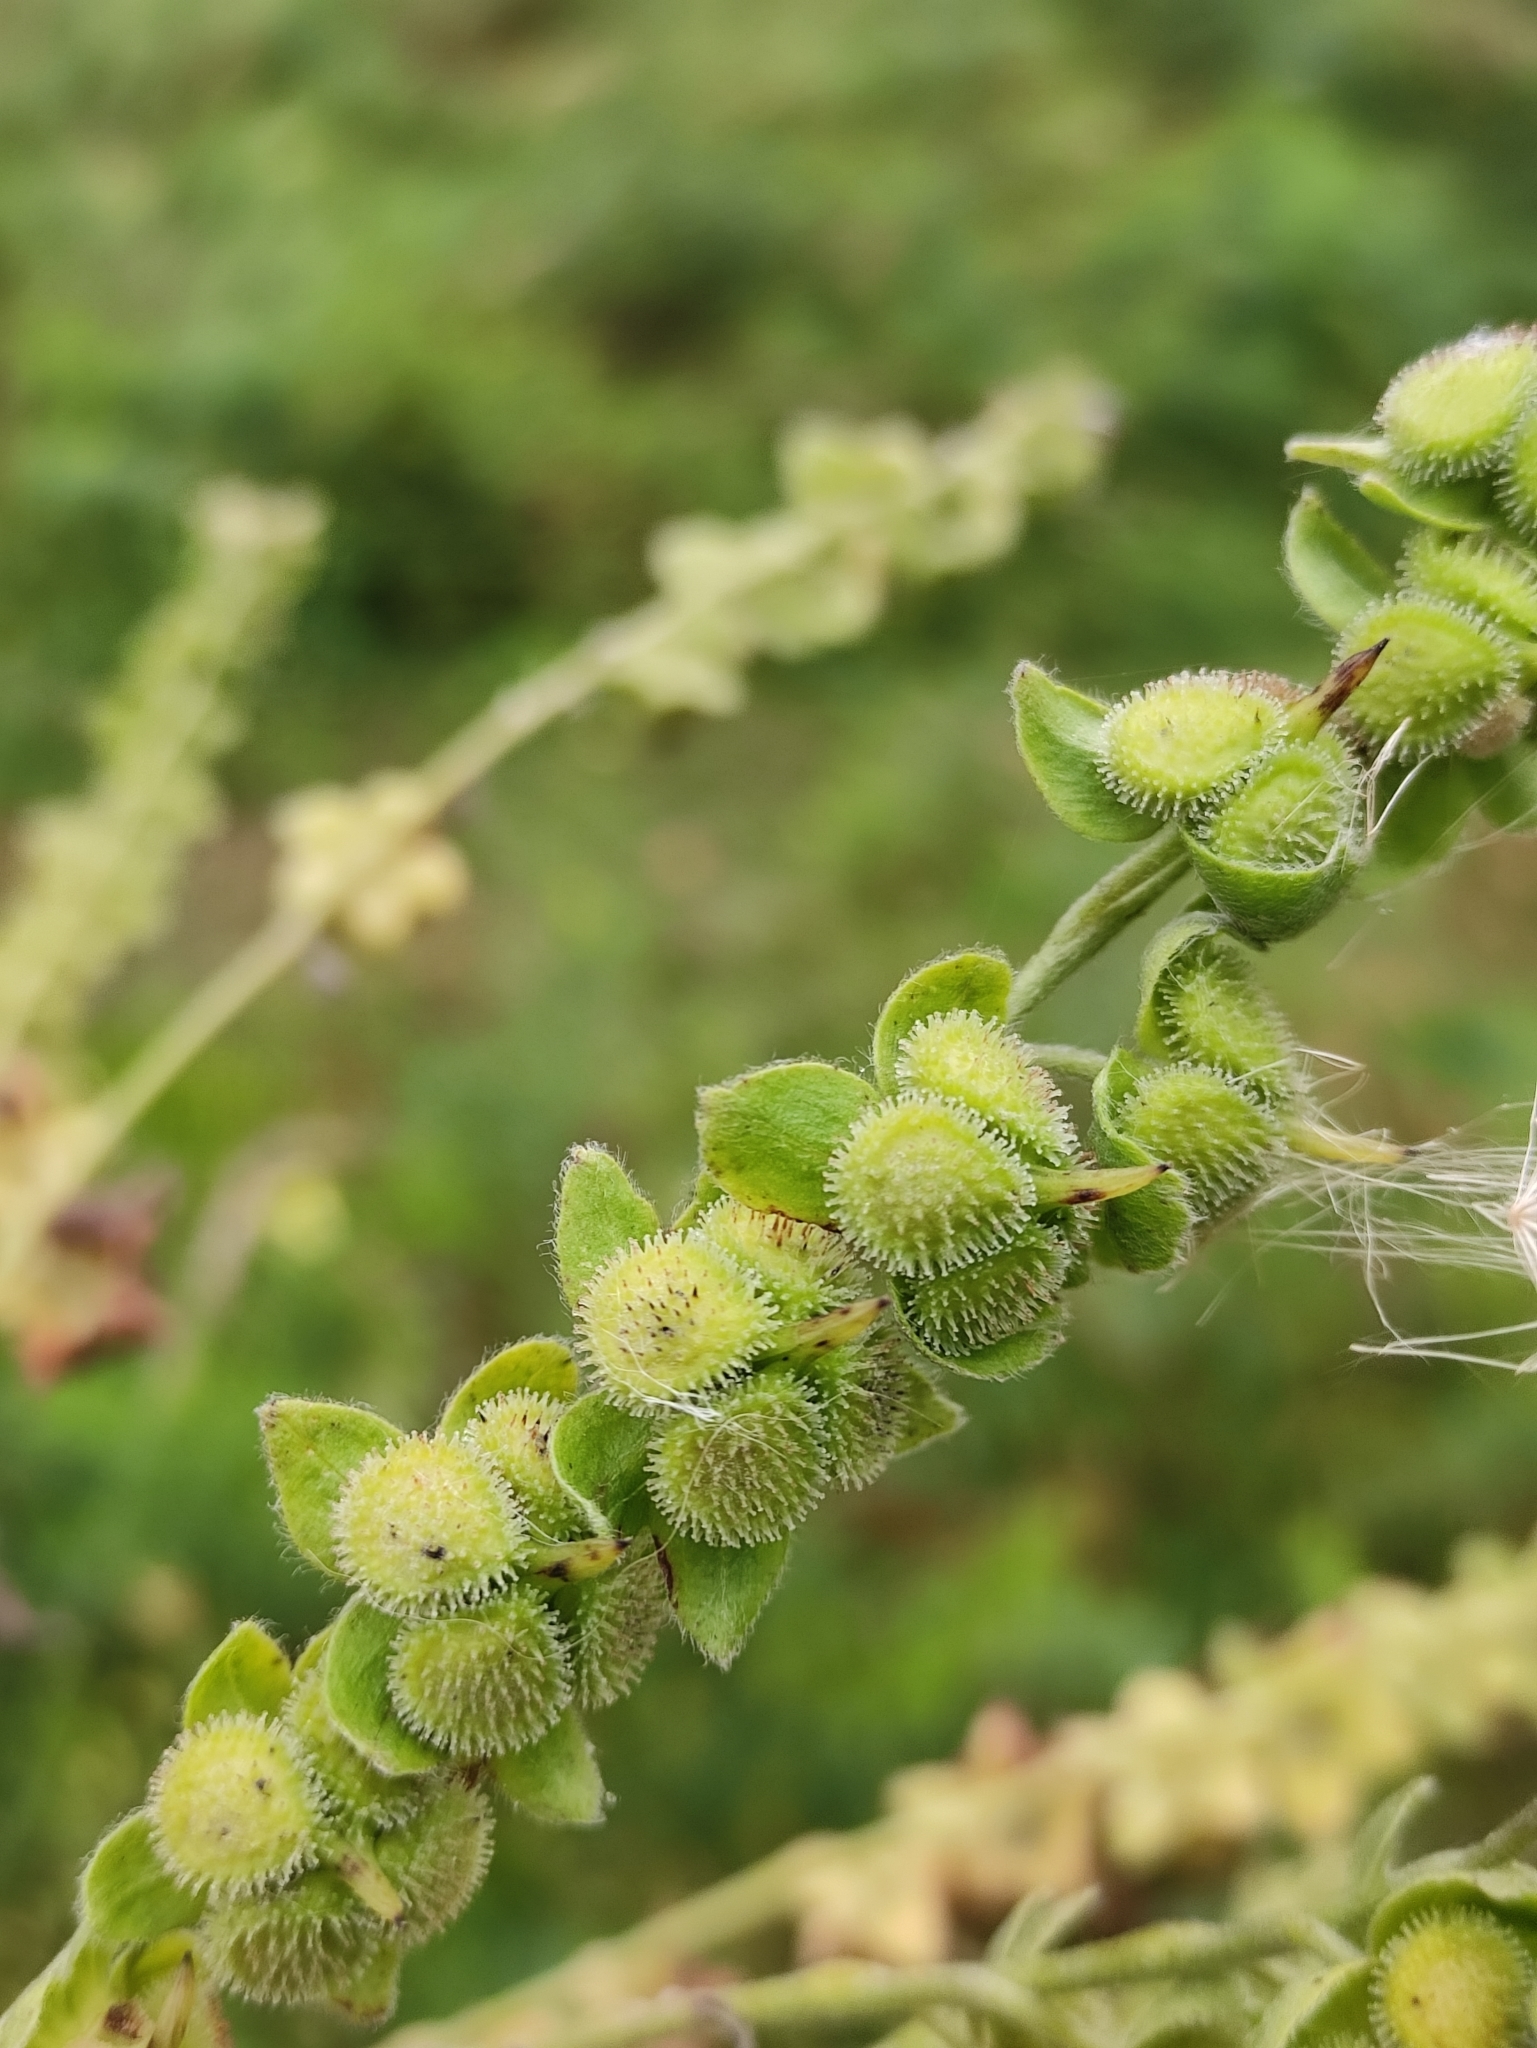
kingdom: Plantae
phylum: Tracheophyta
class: Magnoliopsida
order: Boraginales
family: Boraginaceae
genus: Cynoglossum
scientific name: Cynoglossum officinale
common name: Hound's-tongue
